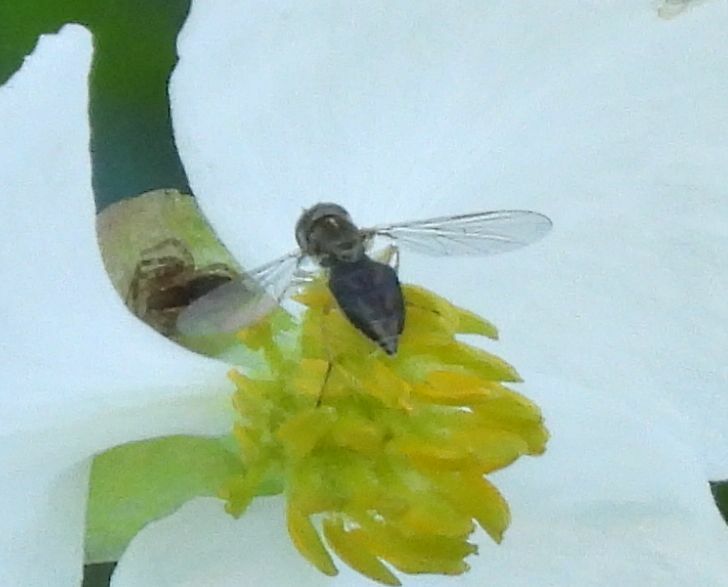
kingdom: Animalia
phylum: Arthropoda
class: Insecta
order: Diptera
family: Syrphidae
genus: Toxomerus
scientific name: Toxomerus marginatus
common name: Syrphid fly
